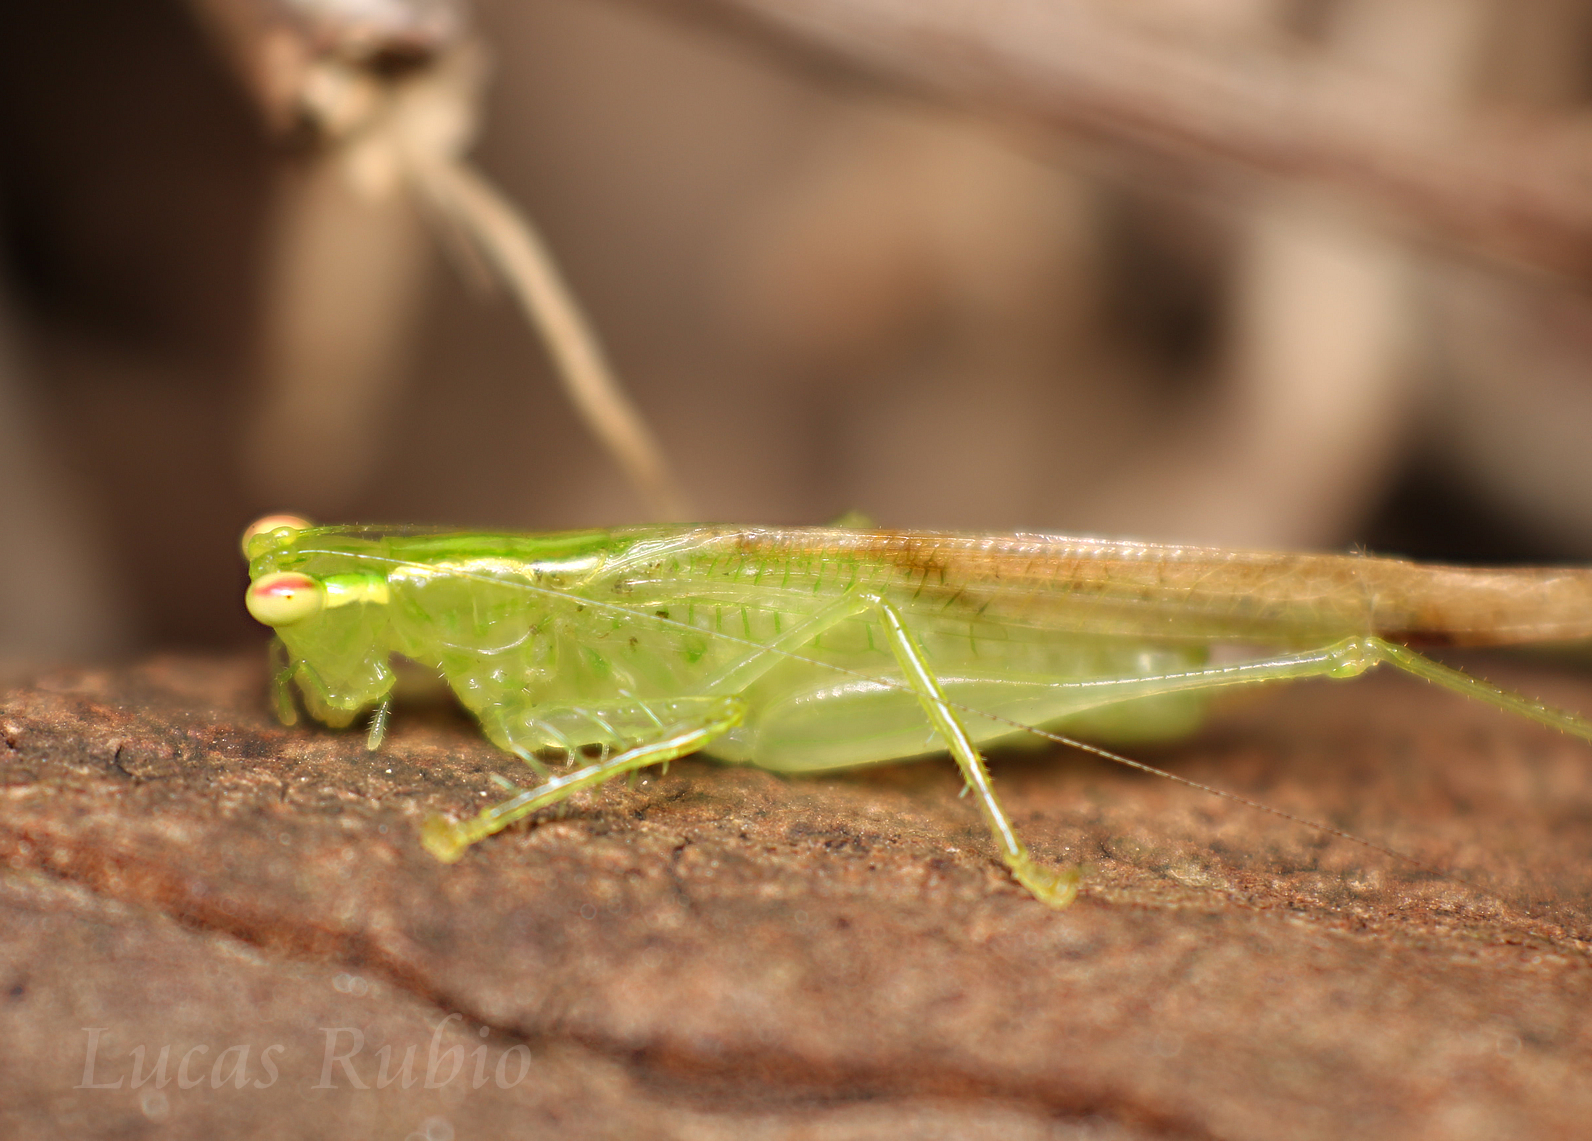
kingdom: Animalia
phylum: Arthropoda
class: Insecta
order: Orthoptera
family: Tettigoniidae
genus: Phlugis
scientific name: Phlugis proseni
